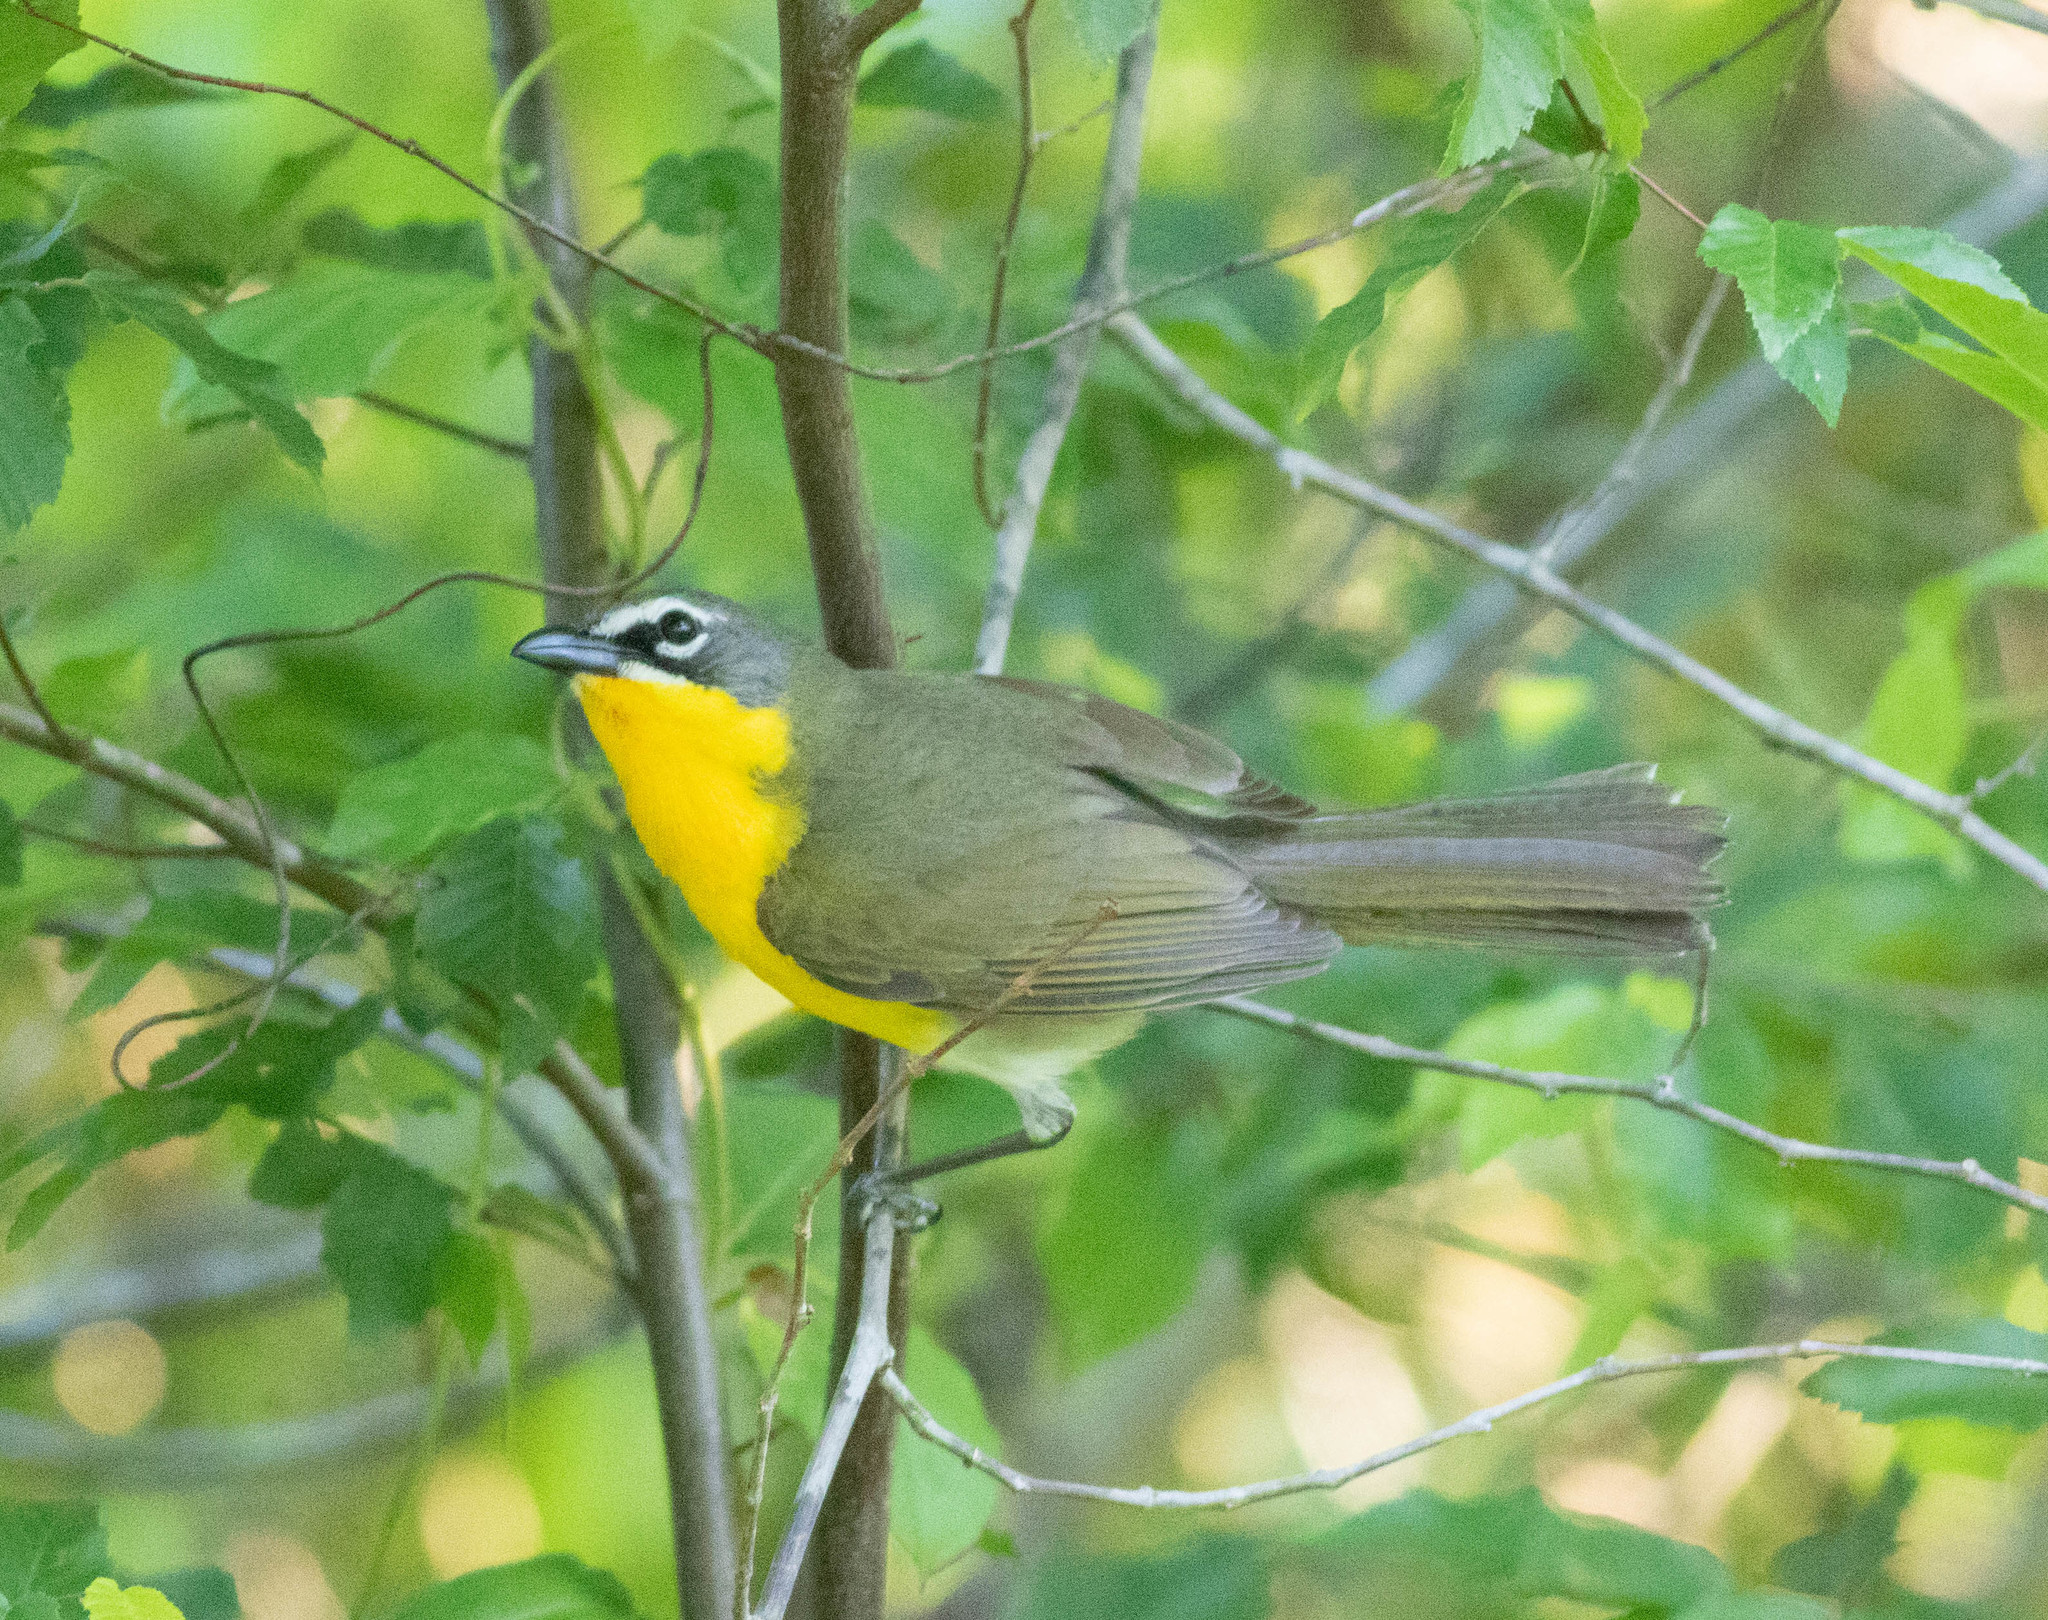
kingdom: Animalia
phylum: Chordata
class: Aves
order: Passeriformes
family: Parulidae
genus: Icteria
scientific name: Icteria virens
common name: Yellow-breasted chat
